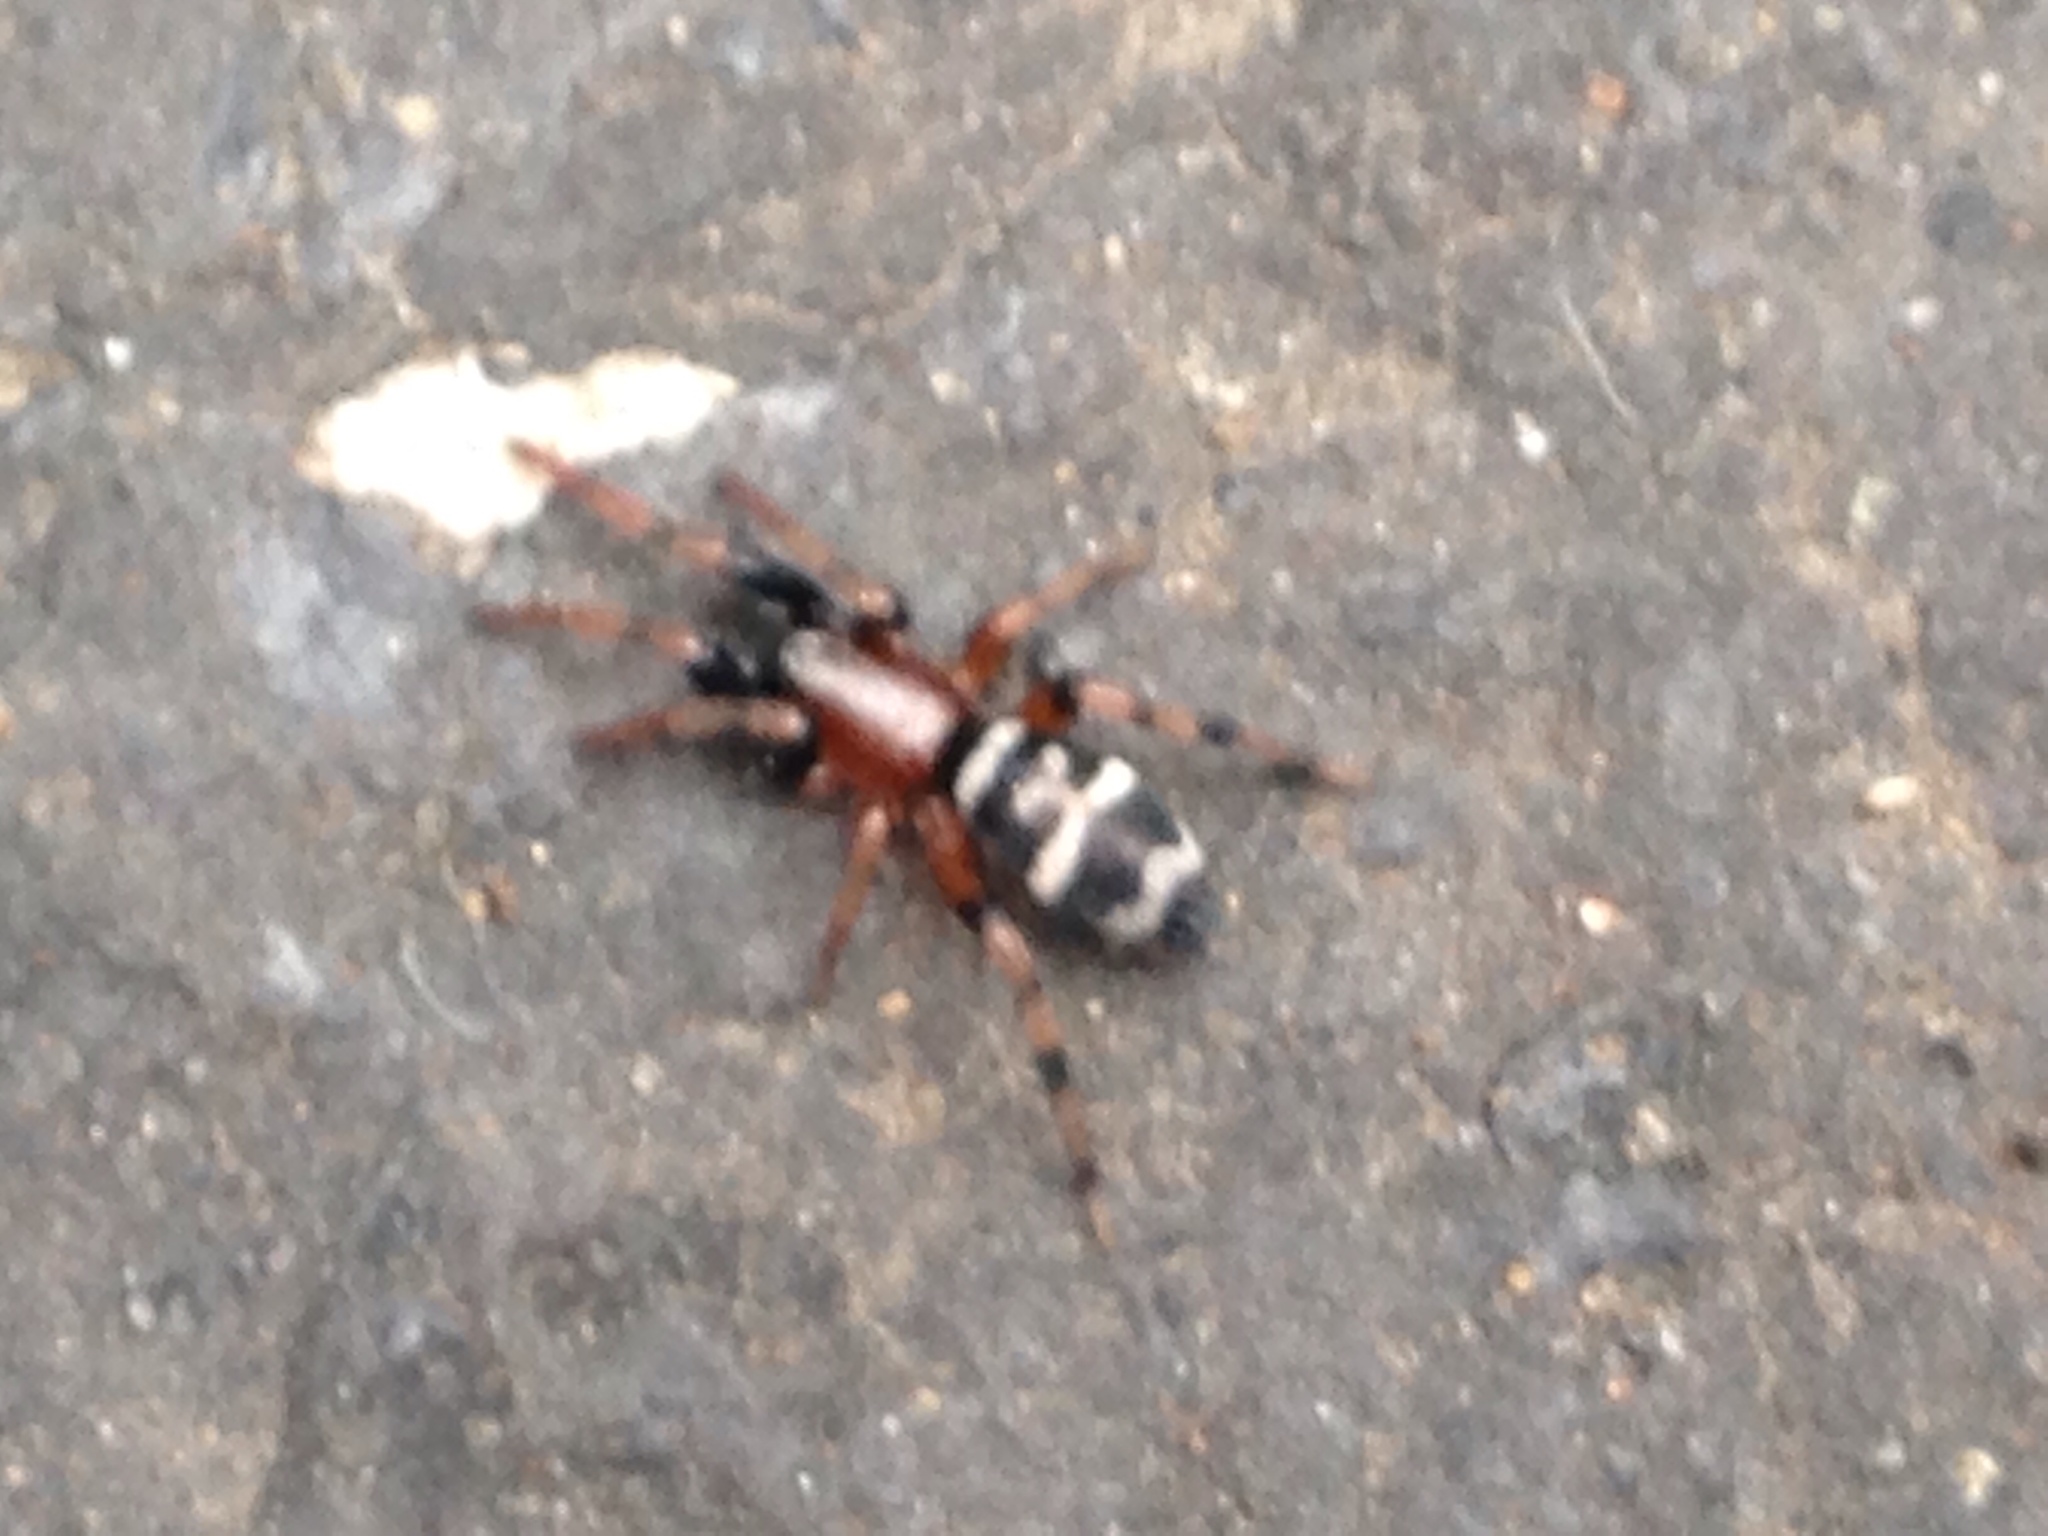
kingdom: Animalia
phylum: Arthropoda
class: Arachnida
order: Araneae
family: Gnaphosidae
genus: Sergiolus
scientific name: Sergiolus capulatus
